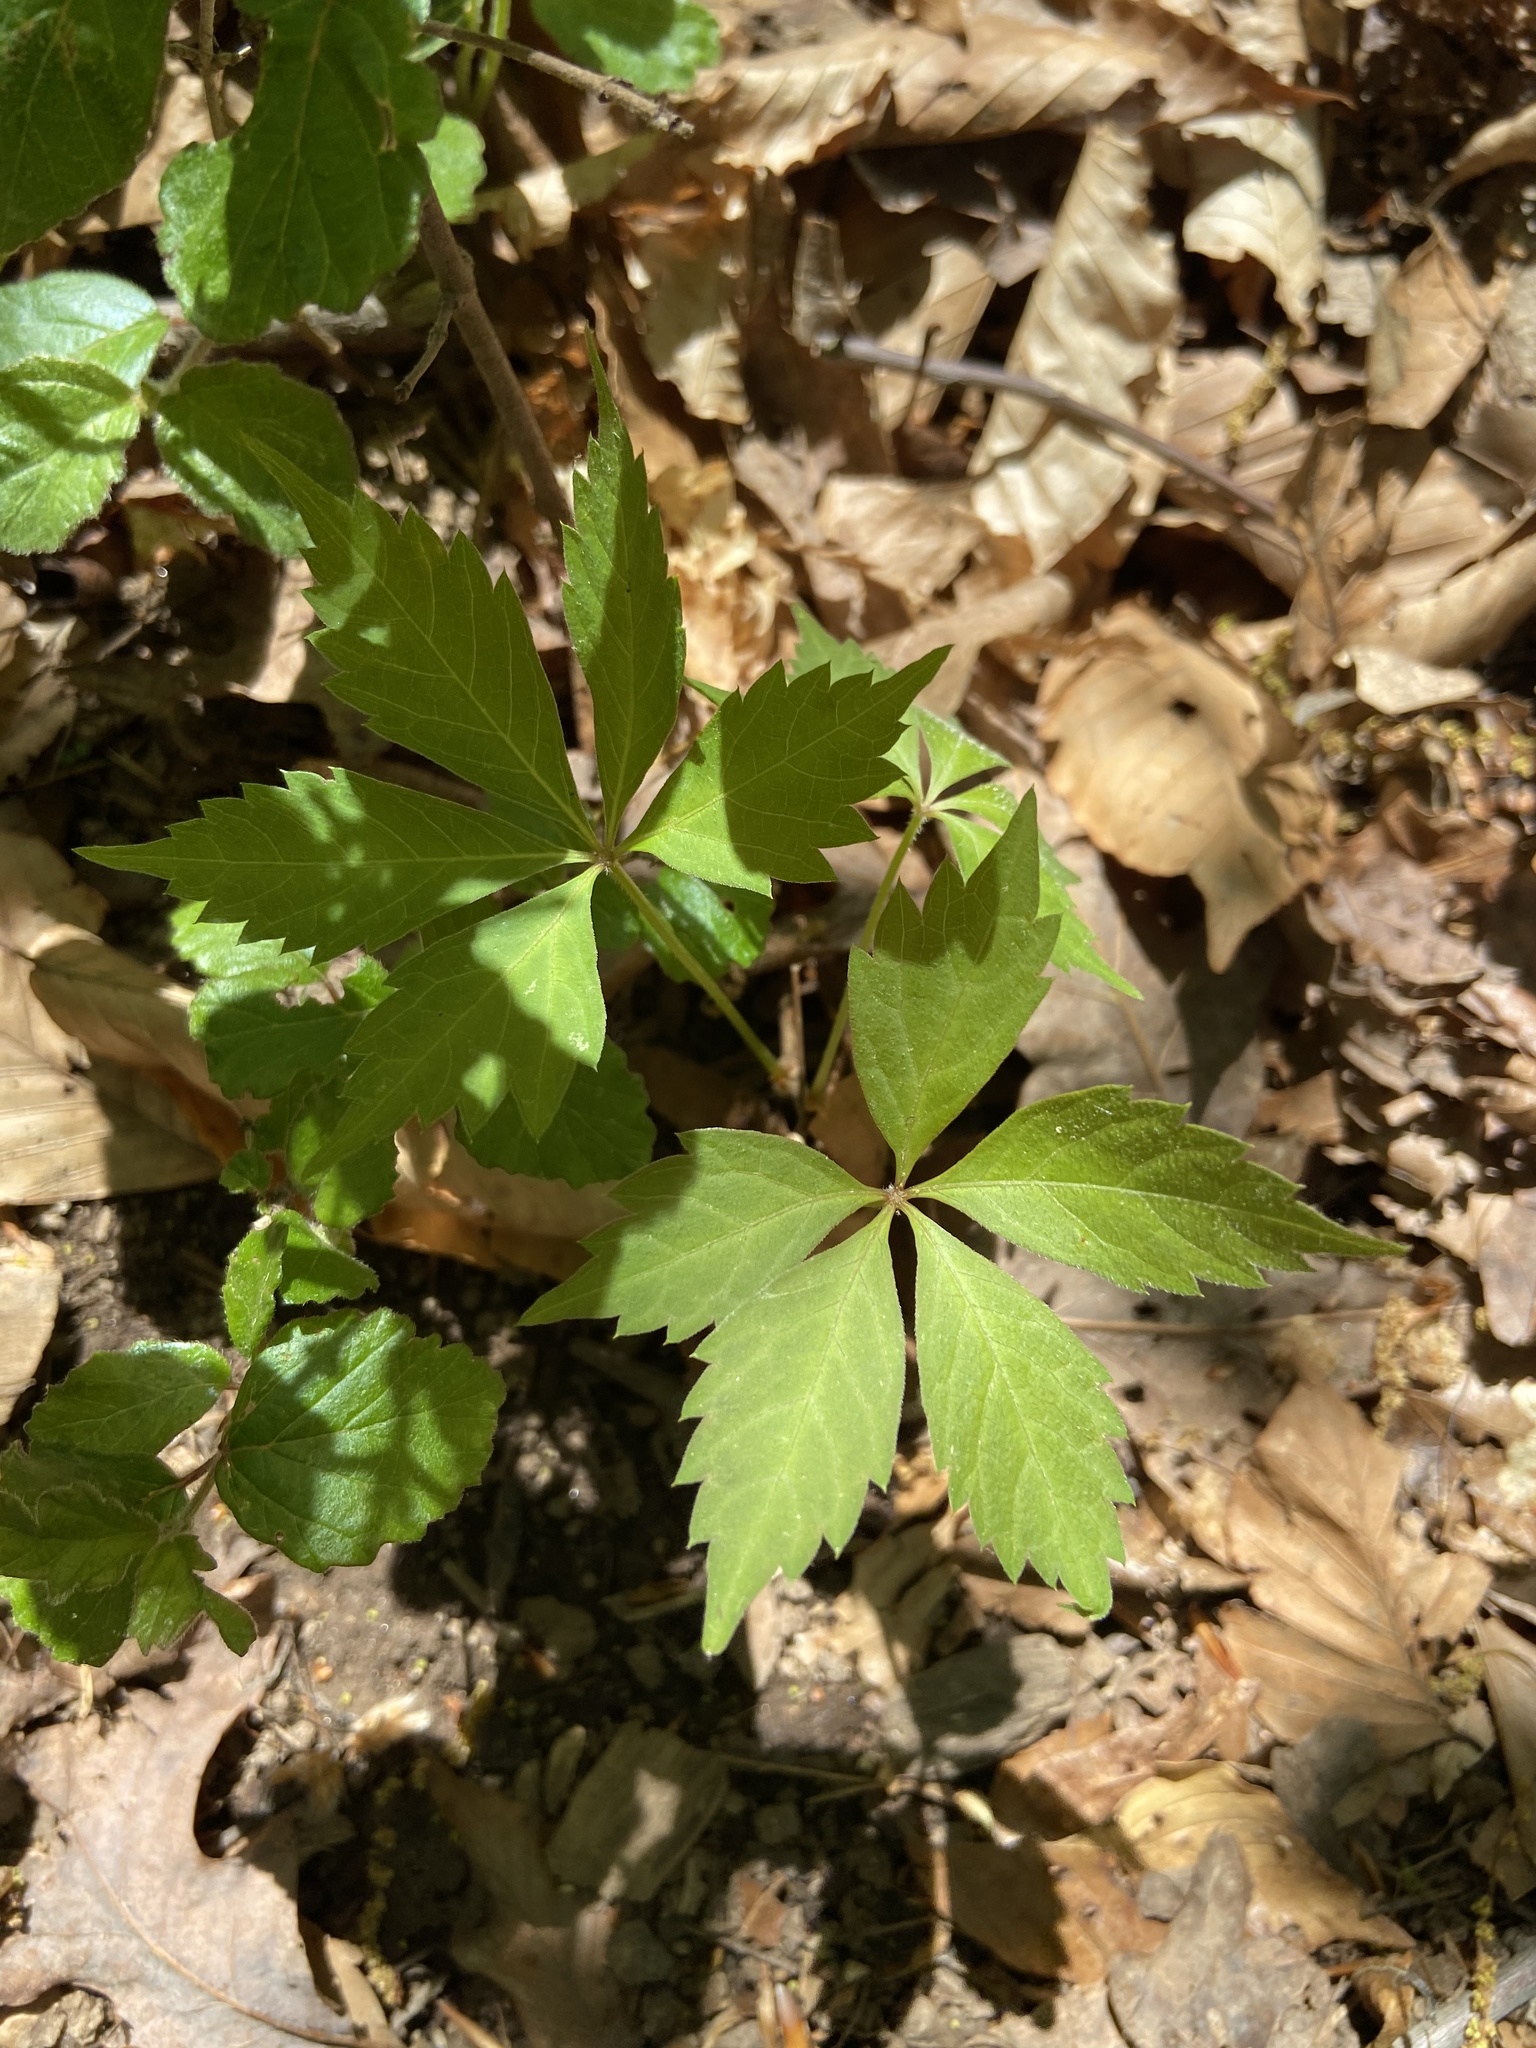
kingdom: Plantae
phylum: Tracheophyta
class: Magnoliopsida
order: Vitales
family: Vitaceae
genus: Parthenocissus
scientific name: Parthenocissus quinquefolia
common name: Virginia-creeper
